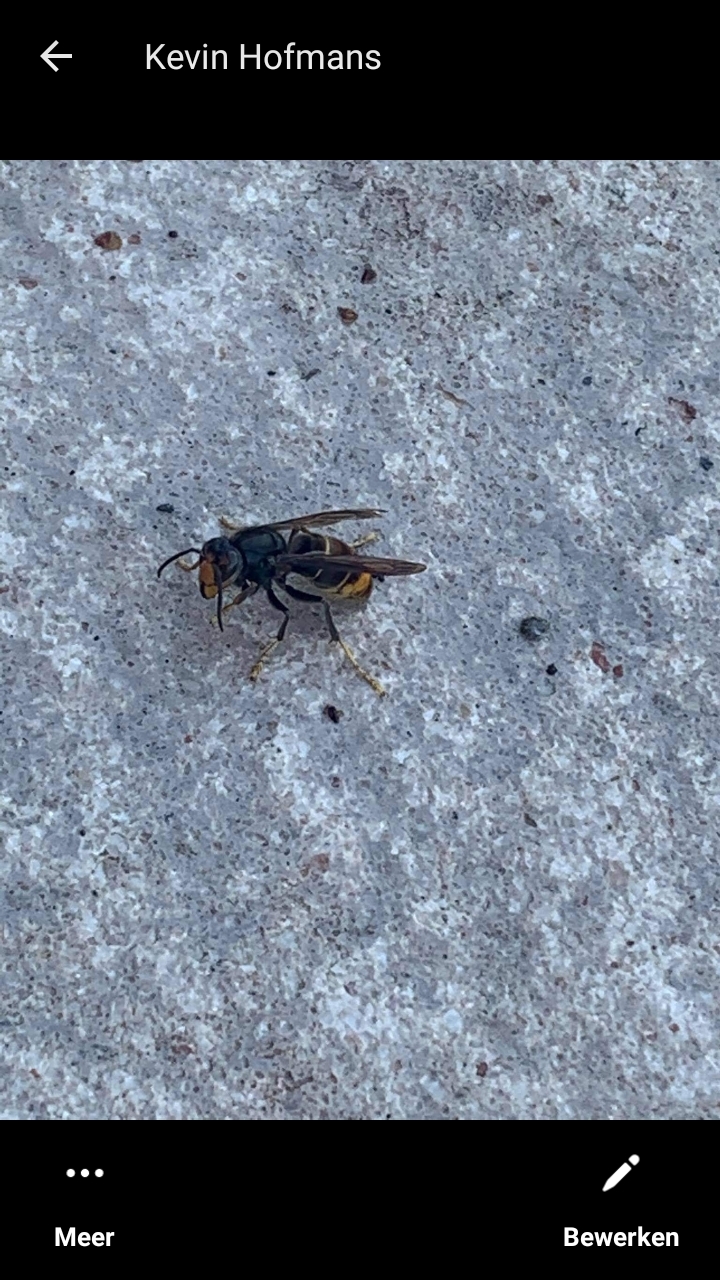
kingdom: Animalia
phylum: Arthropoda
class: Insecta
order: Hymenoptera
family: Vespidae
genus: Vespa
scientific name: Vespa velutina
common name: Asian hornet
